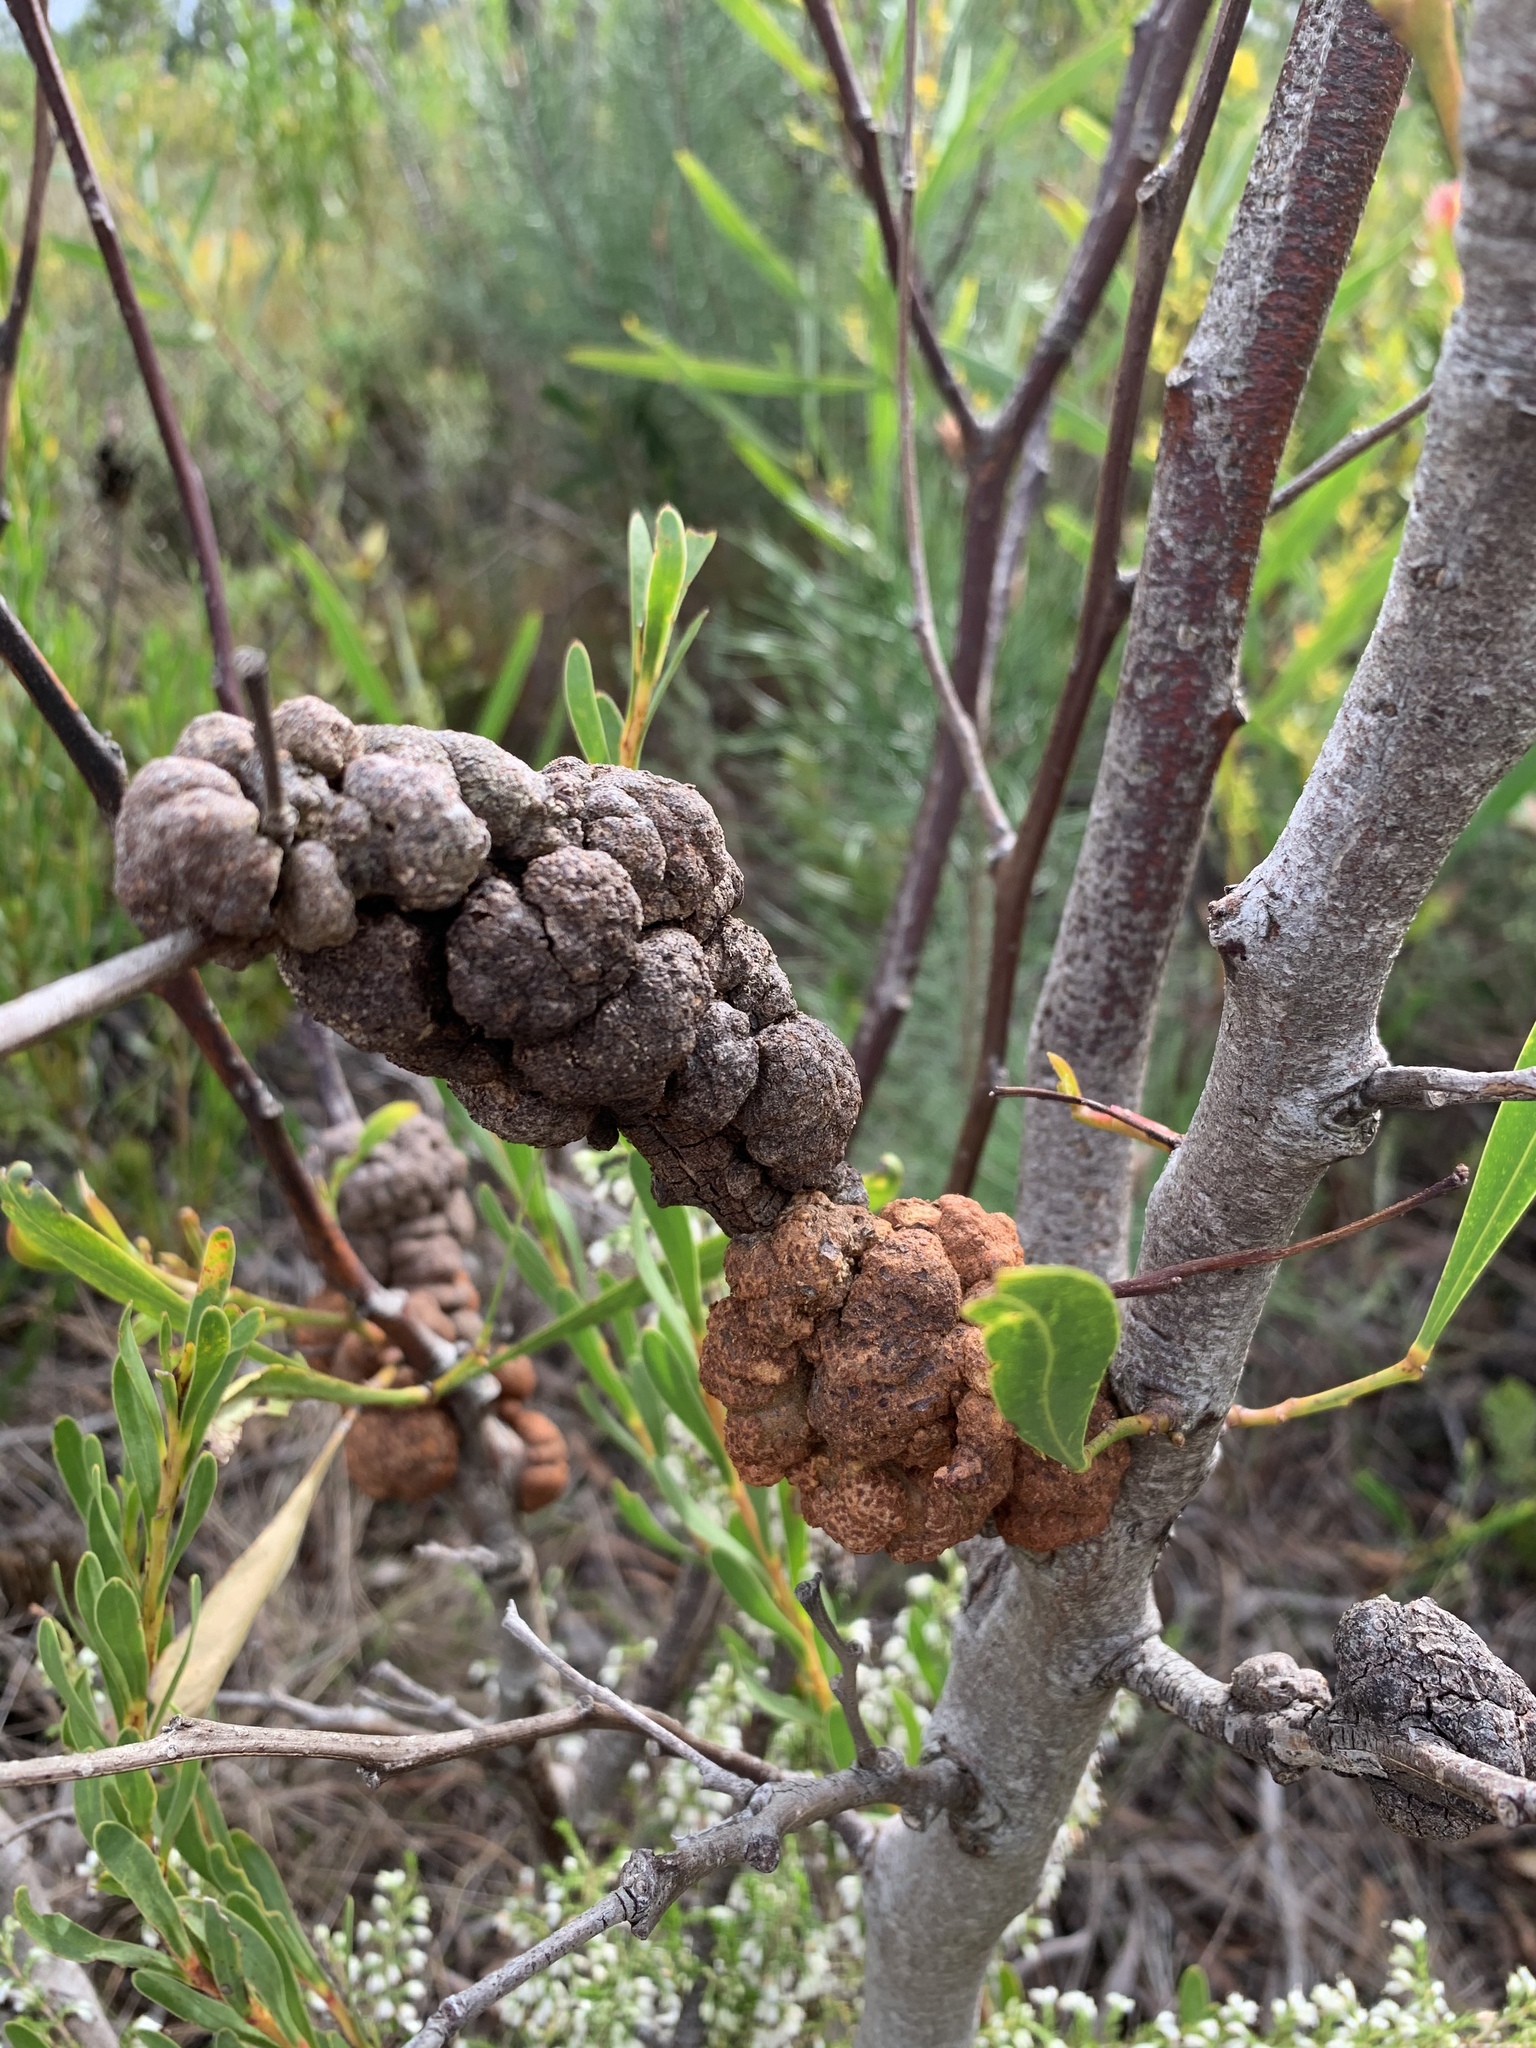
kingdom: Fungi
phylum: Basidiomycota
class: Pucciniomycetes
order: Pucciniales
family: Uromycladiaceae
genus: Uromycladium
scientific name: Uromycladium morrisii
